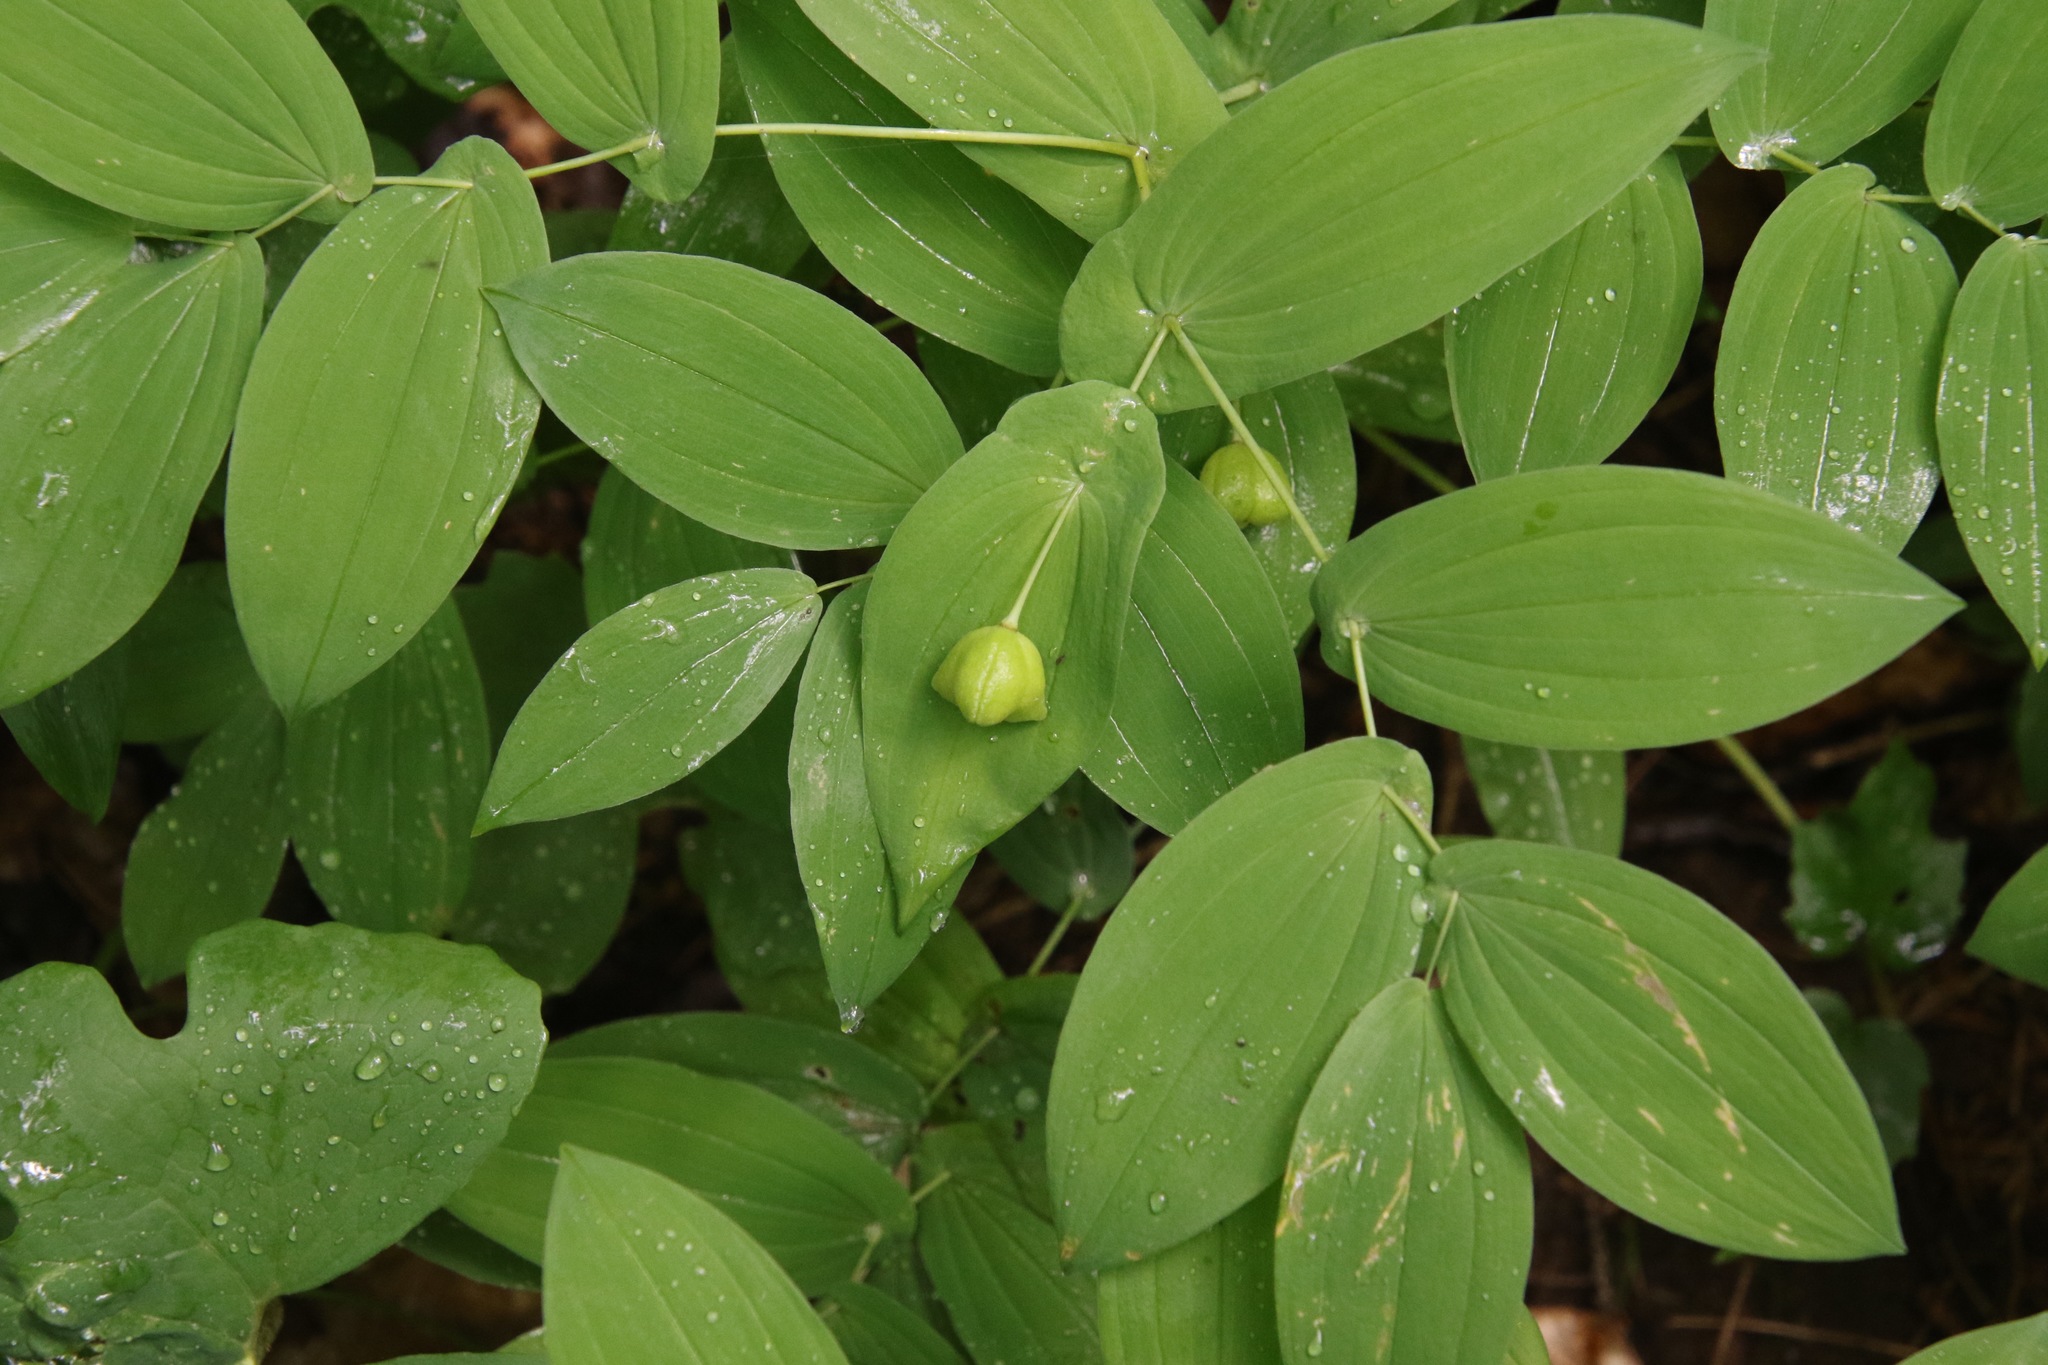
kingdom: Plantae
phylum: Tracheophyta
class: Liliopsida
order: Liliales
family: Colchicaceae
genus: Uvularia
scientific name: Uvularia grandiflora
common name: Bellwort
